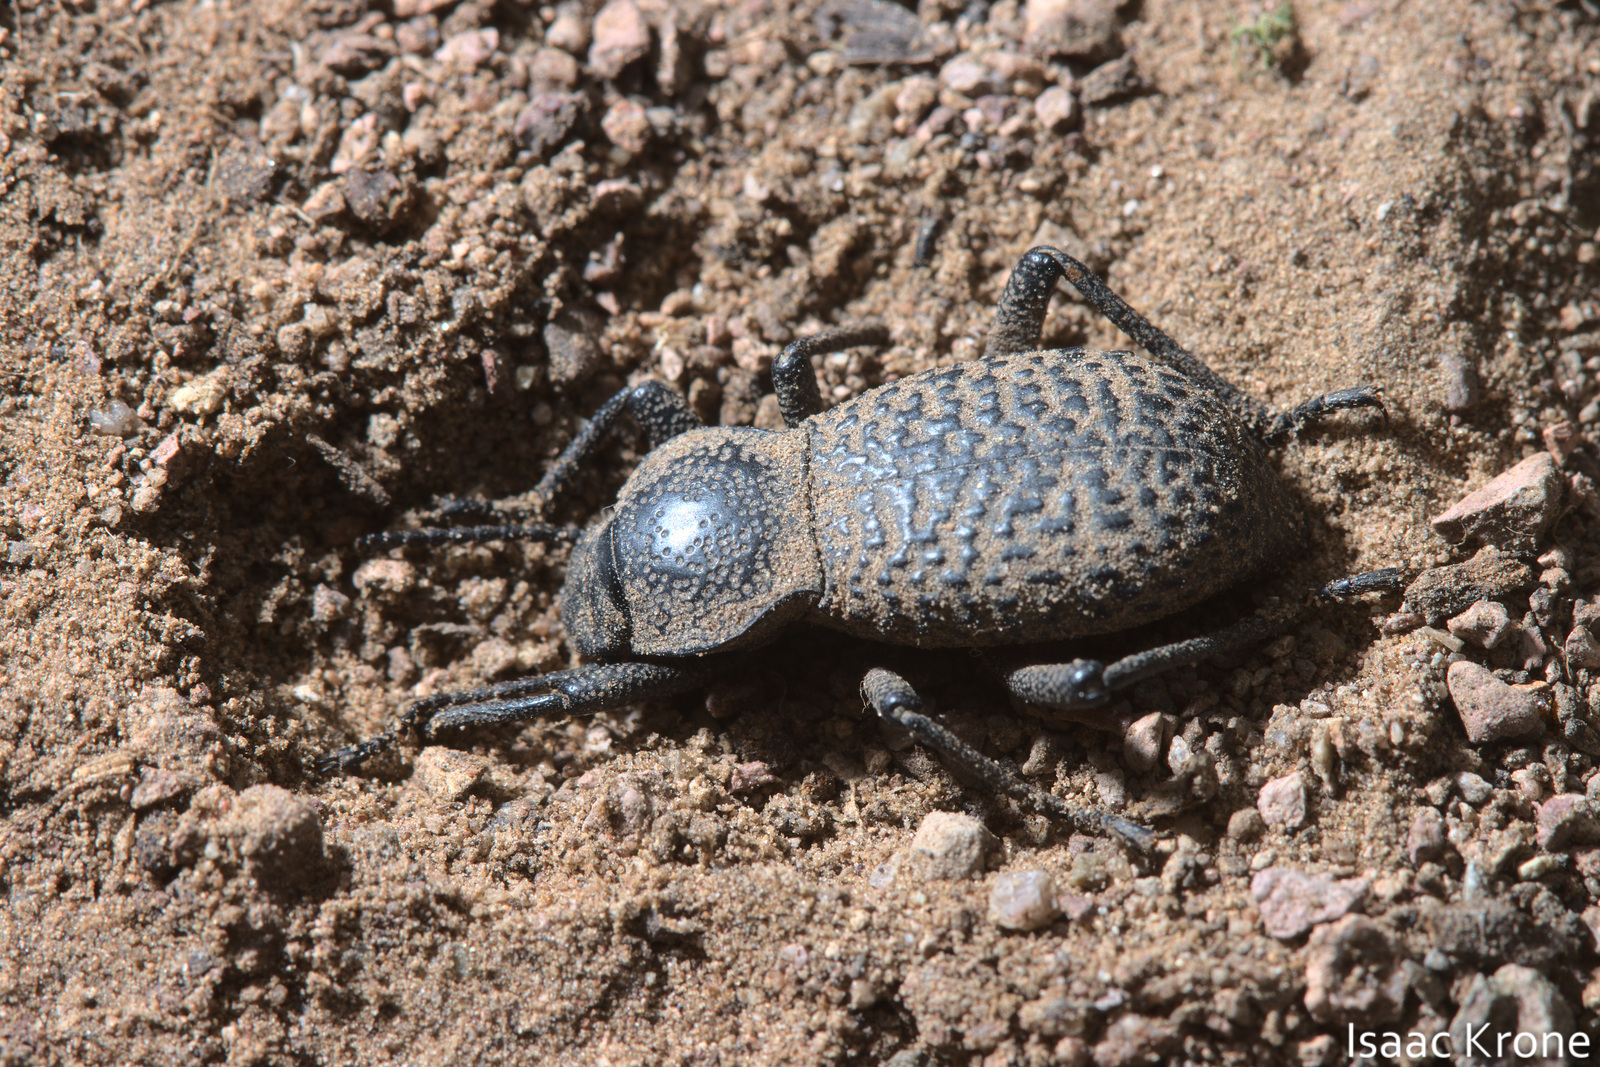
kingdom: Animalia
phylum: Arthropoda
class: Insecta
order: Coleoptera
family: Tenebrionidae
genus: Cryptoglossa
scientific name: Cryptoglossa variolosa
